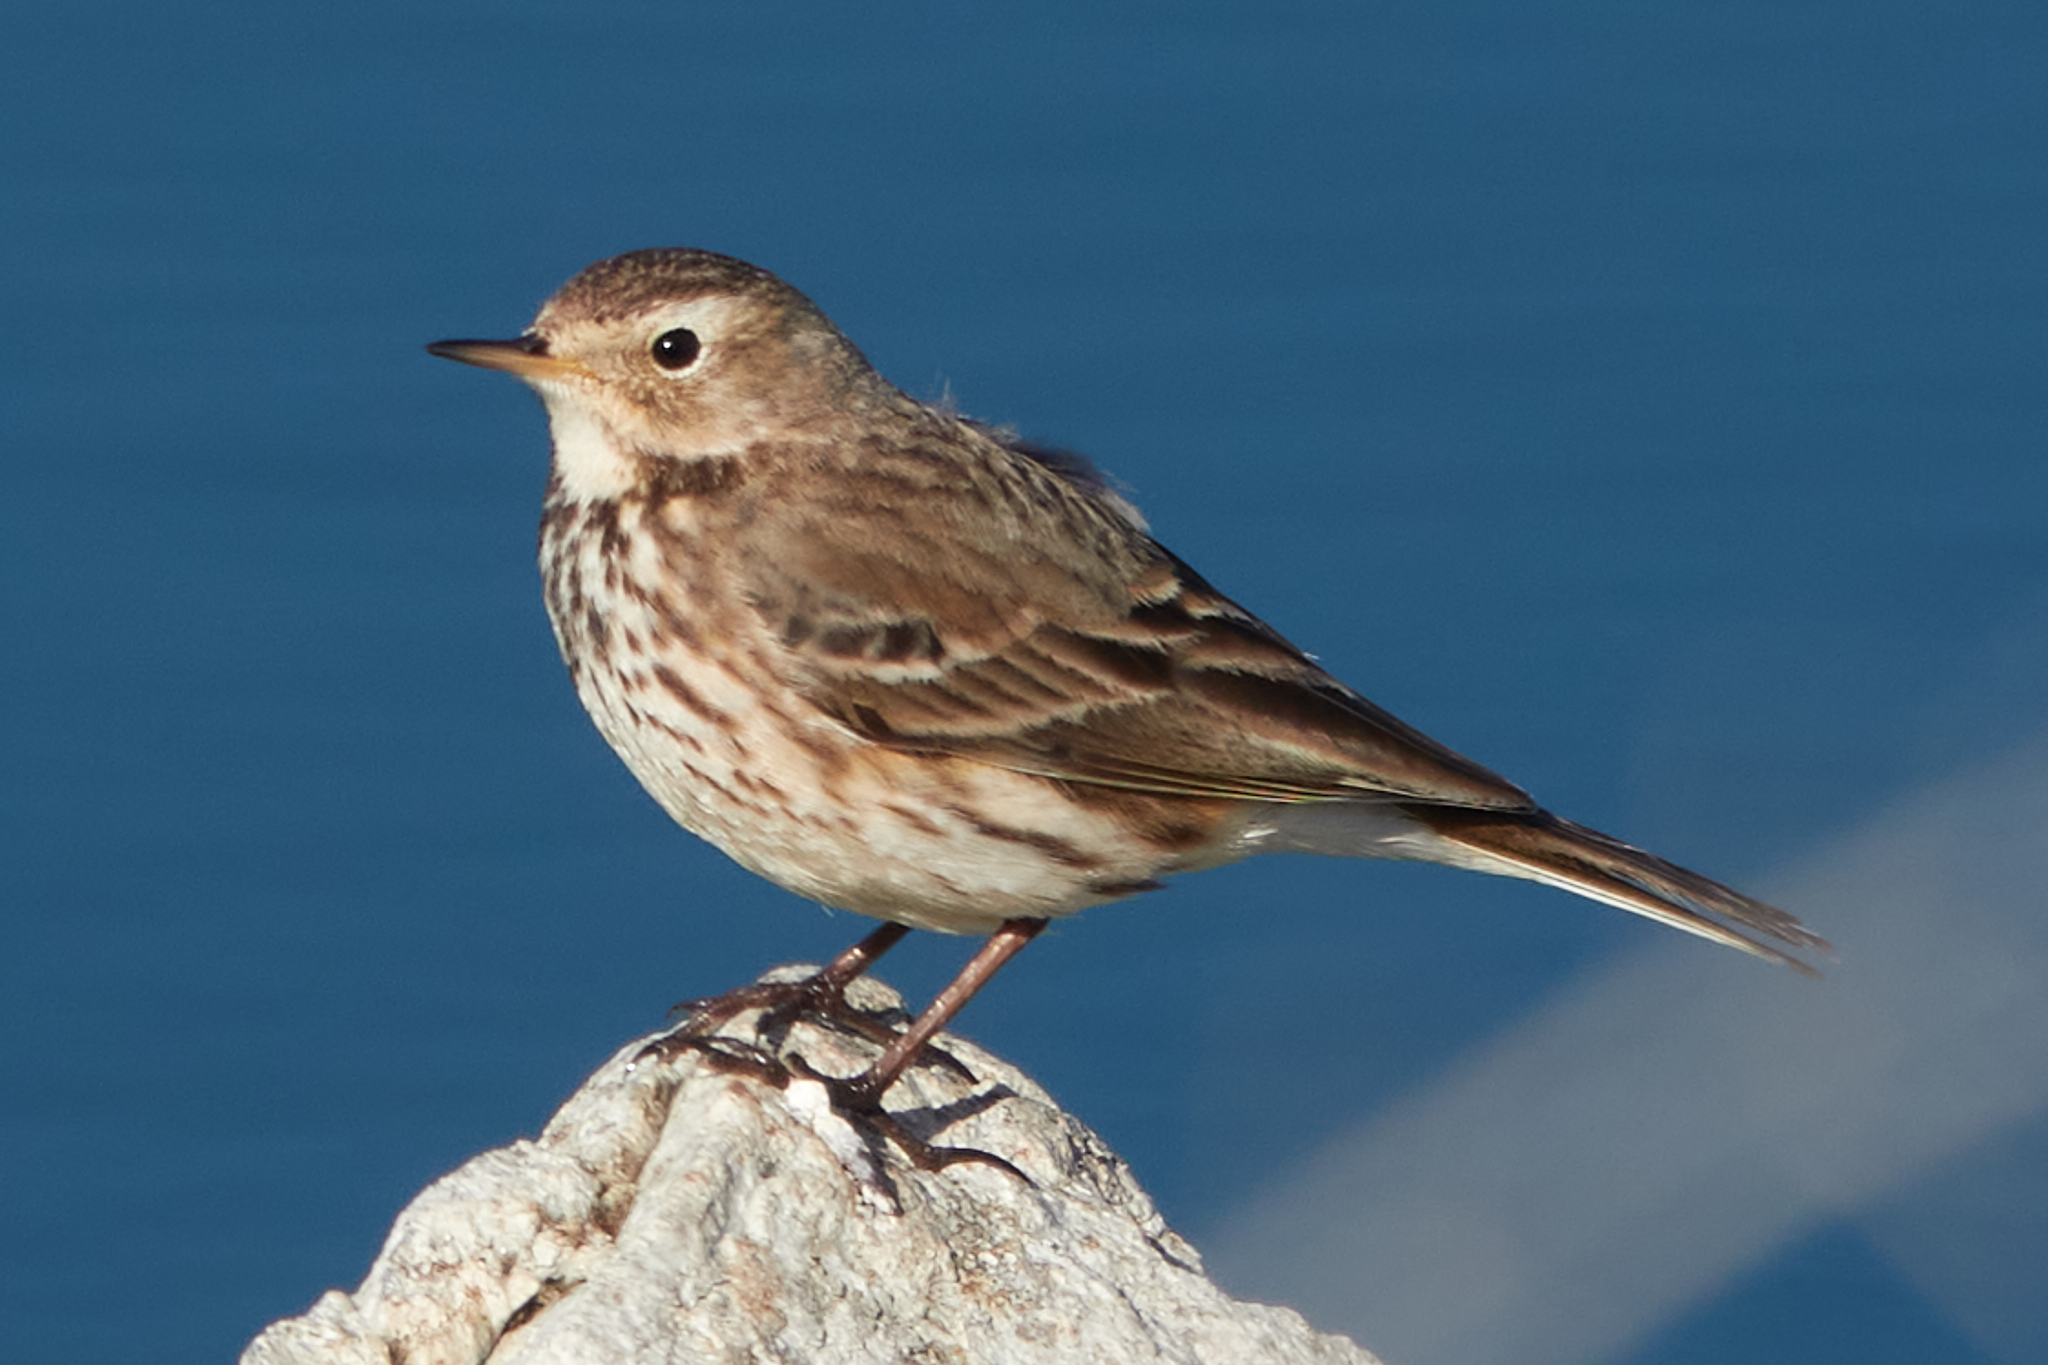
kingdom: Animalia
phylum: Chordata
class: Aves
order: Passeriformes
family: Motacillidae
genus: Anthus
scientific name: Anthus rubescens
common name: Buff-bellied pipit
